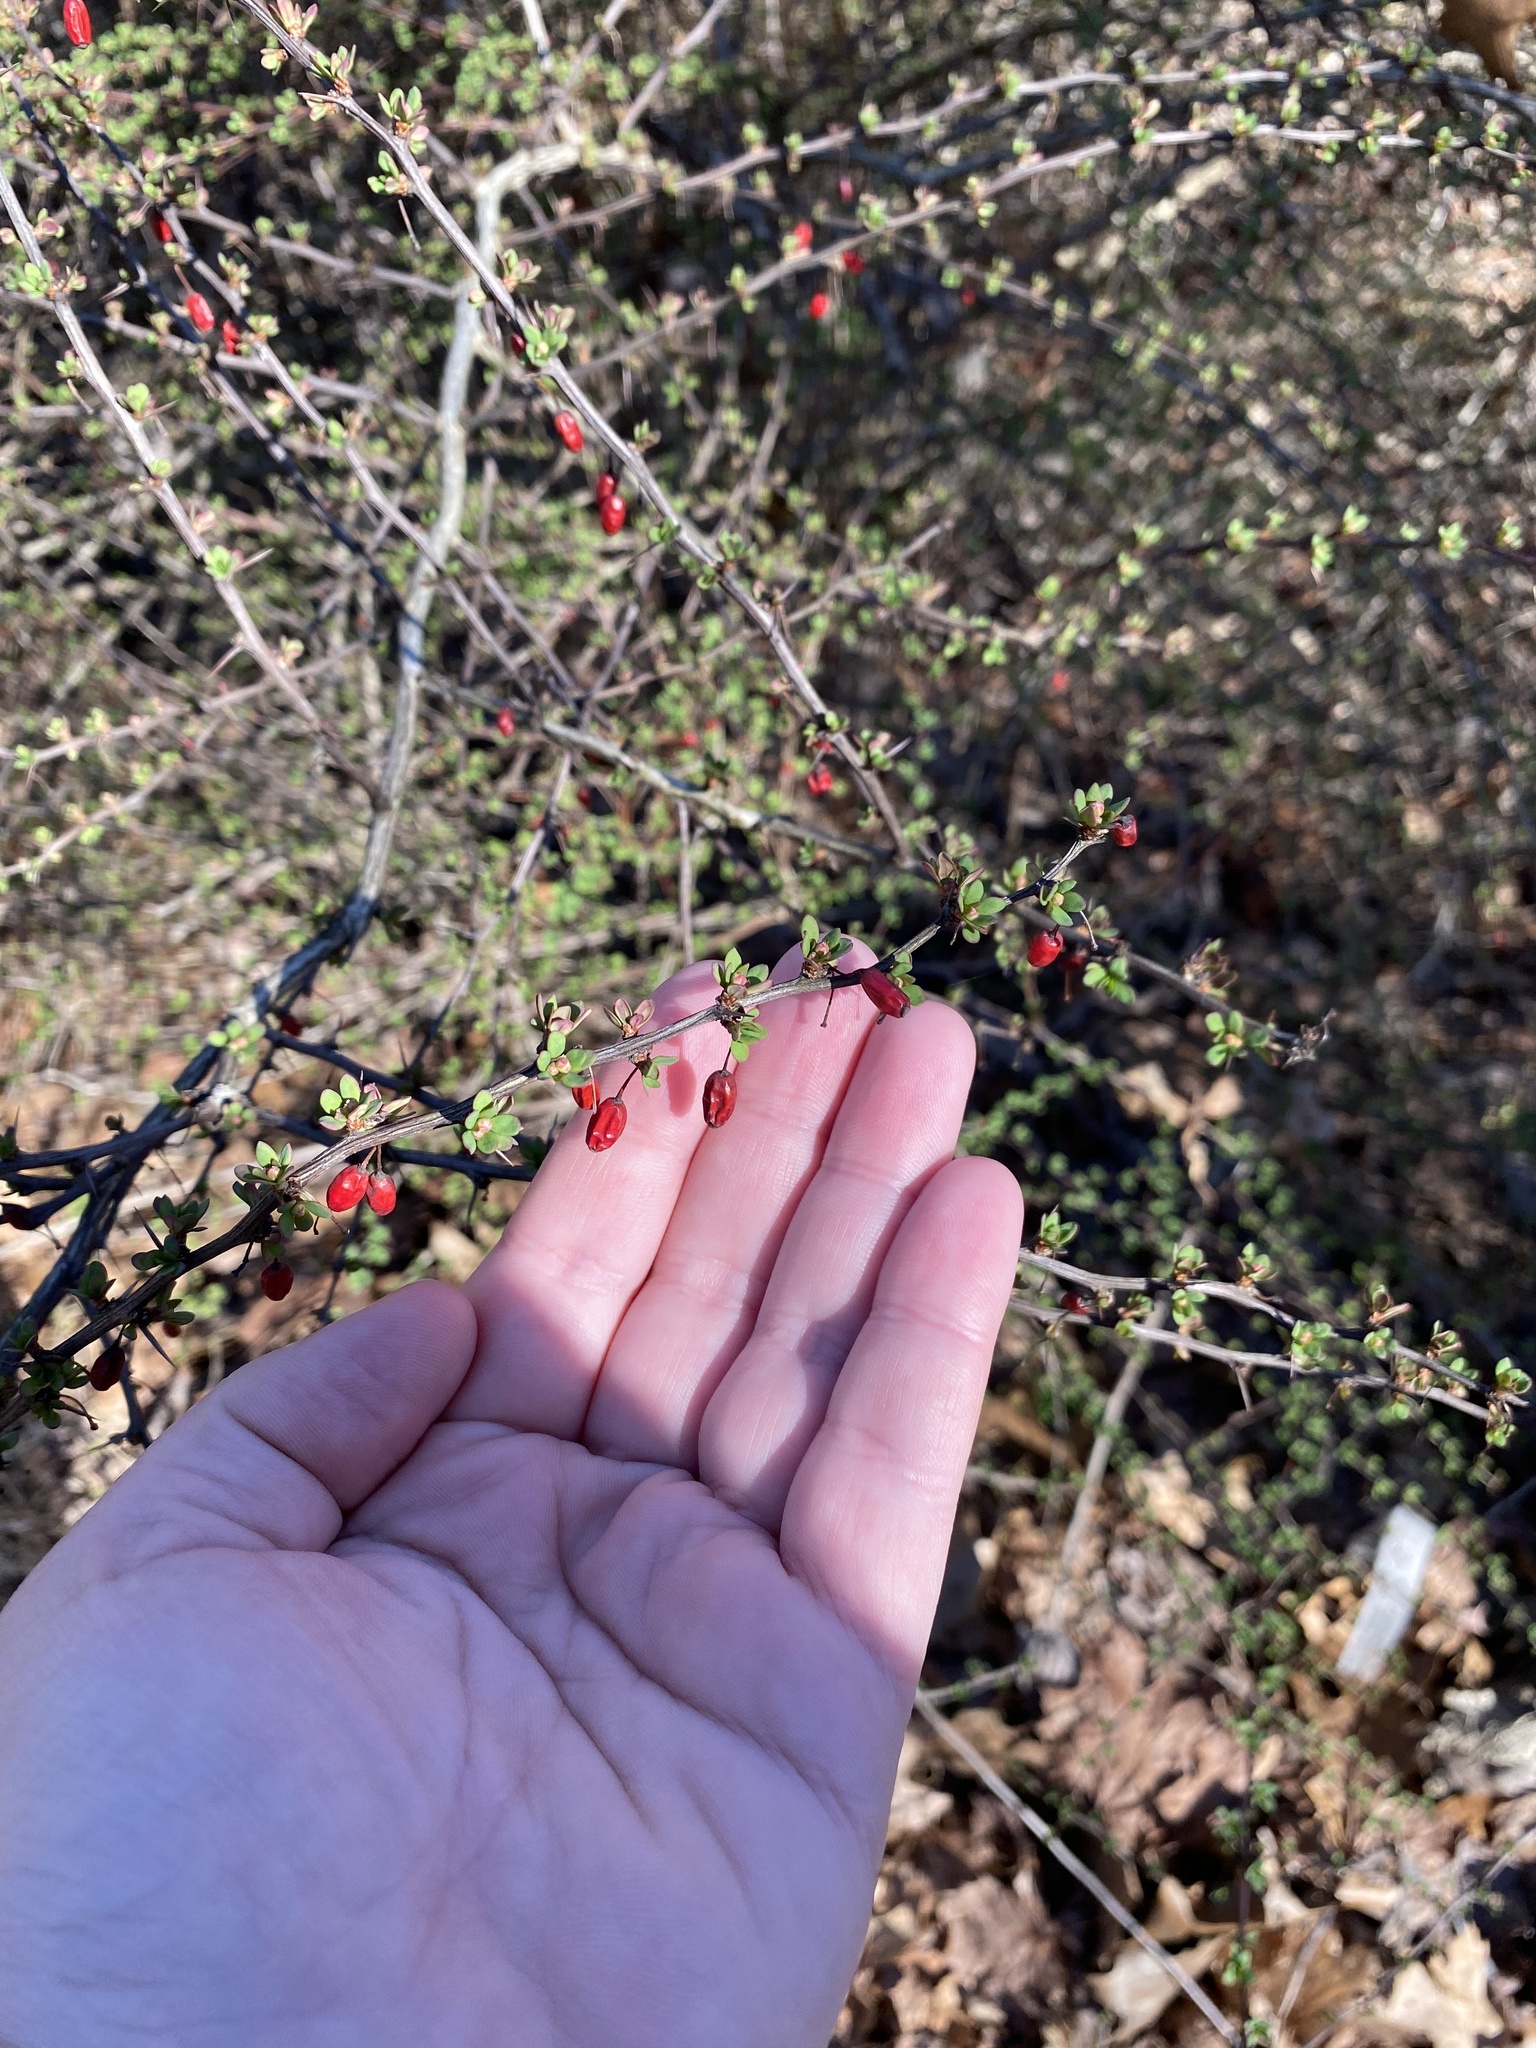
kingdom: Plantae
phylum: Tracheophyta
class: Magnoliopsida
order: Ranunculales
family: Berberidaceae
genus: Berberis
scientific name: Berberis thunbergii
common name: Japanese barberry
